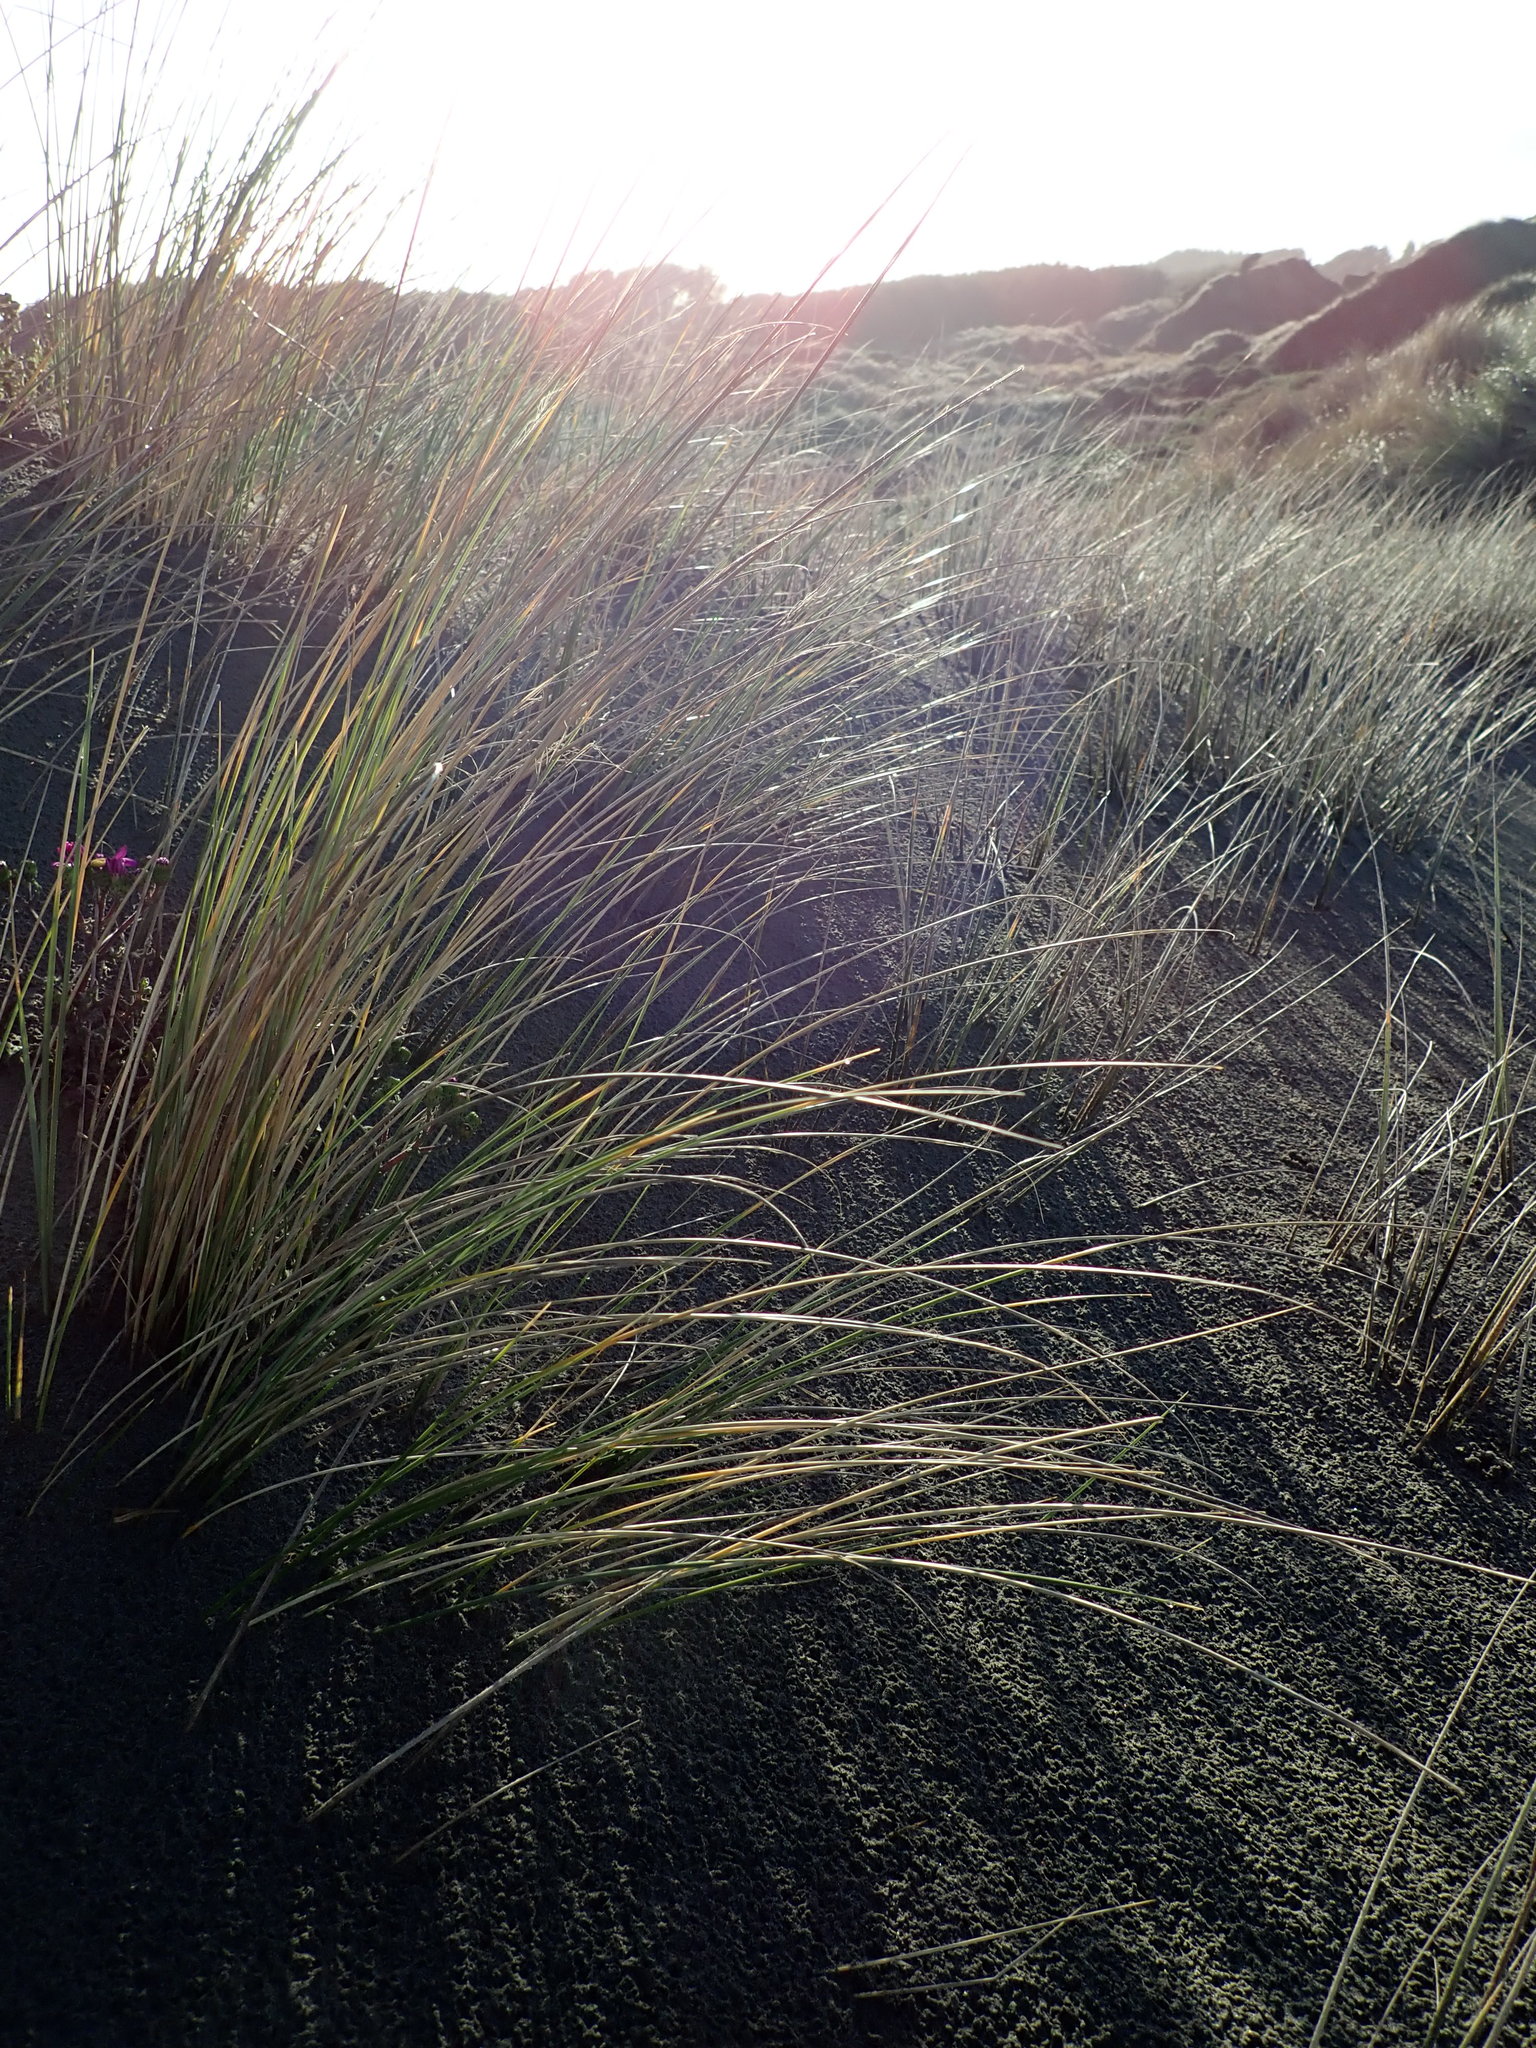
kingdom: Plantae
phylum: Tracheophyta
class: Liliopsida
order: Poales
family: Poaceae
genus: Calamagrostis
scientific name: Calamagrostis arenaria
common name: European beachgrass
